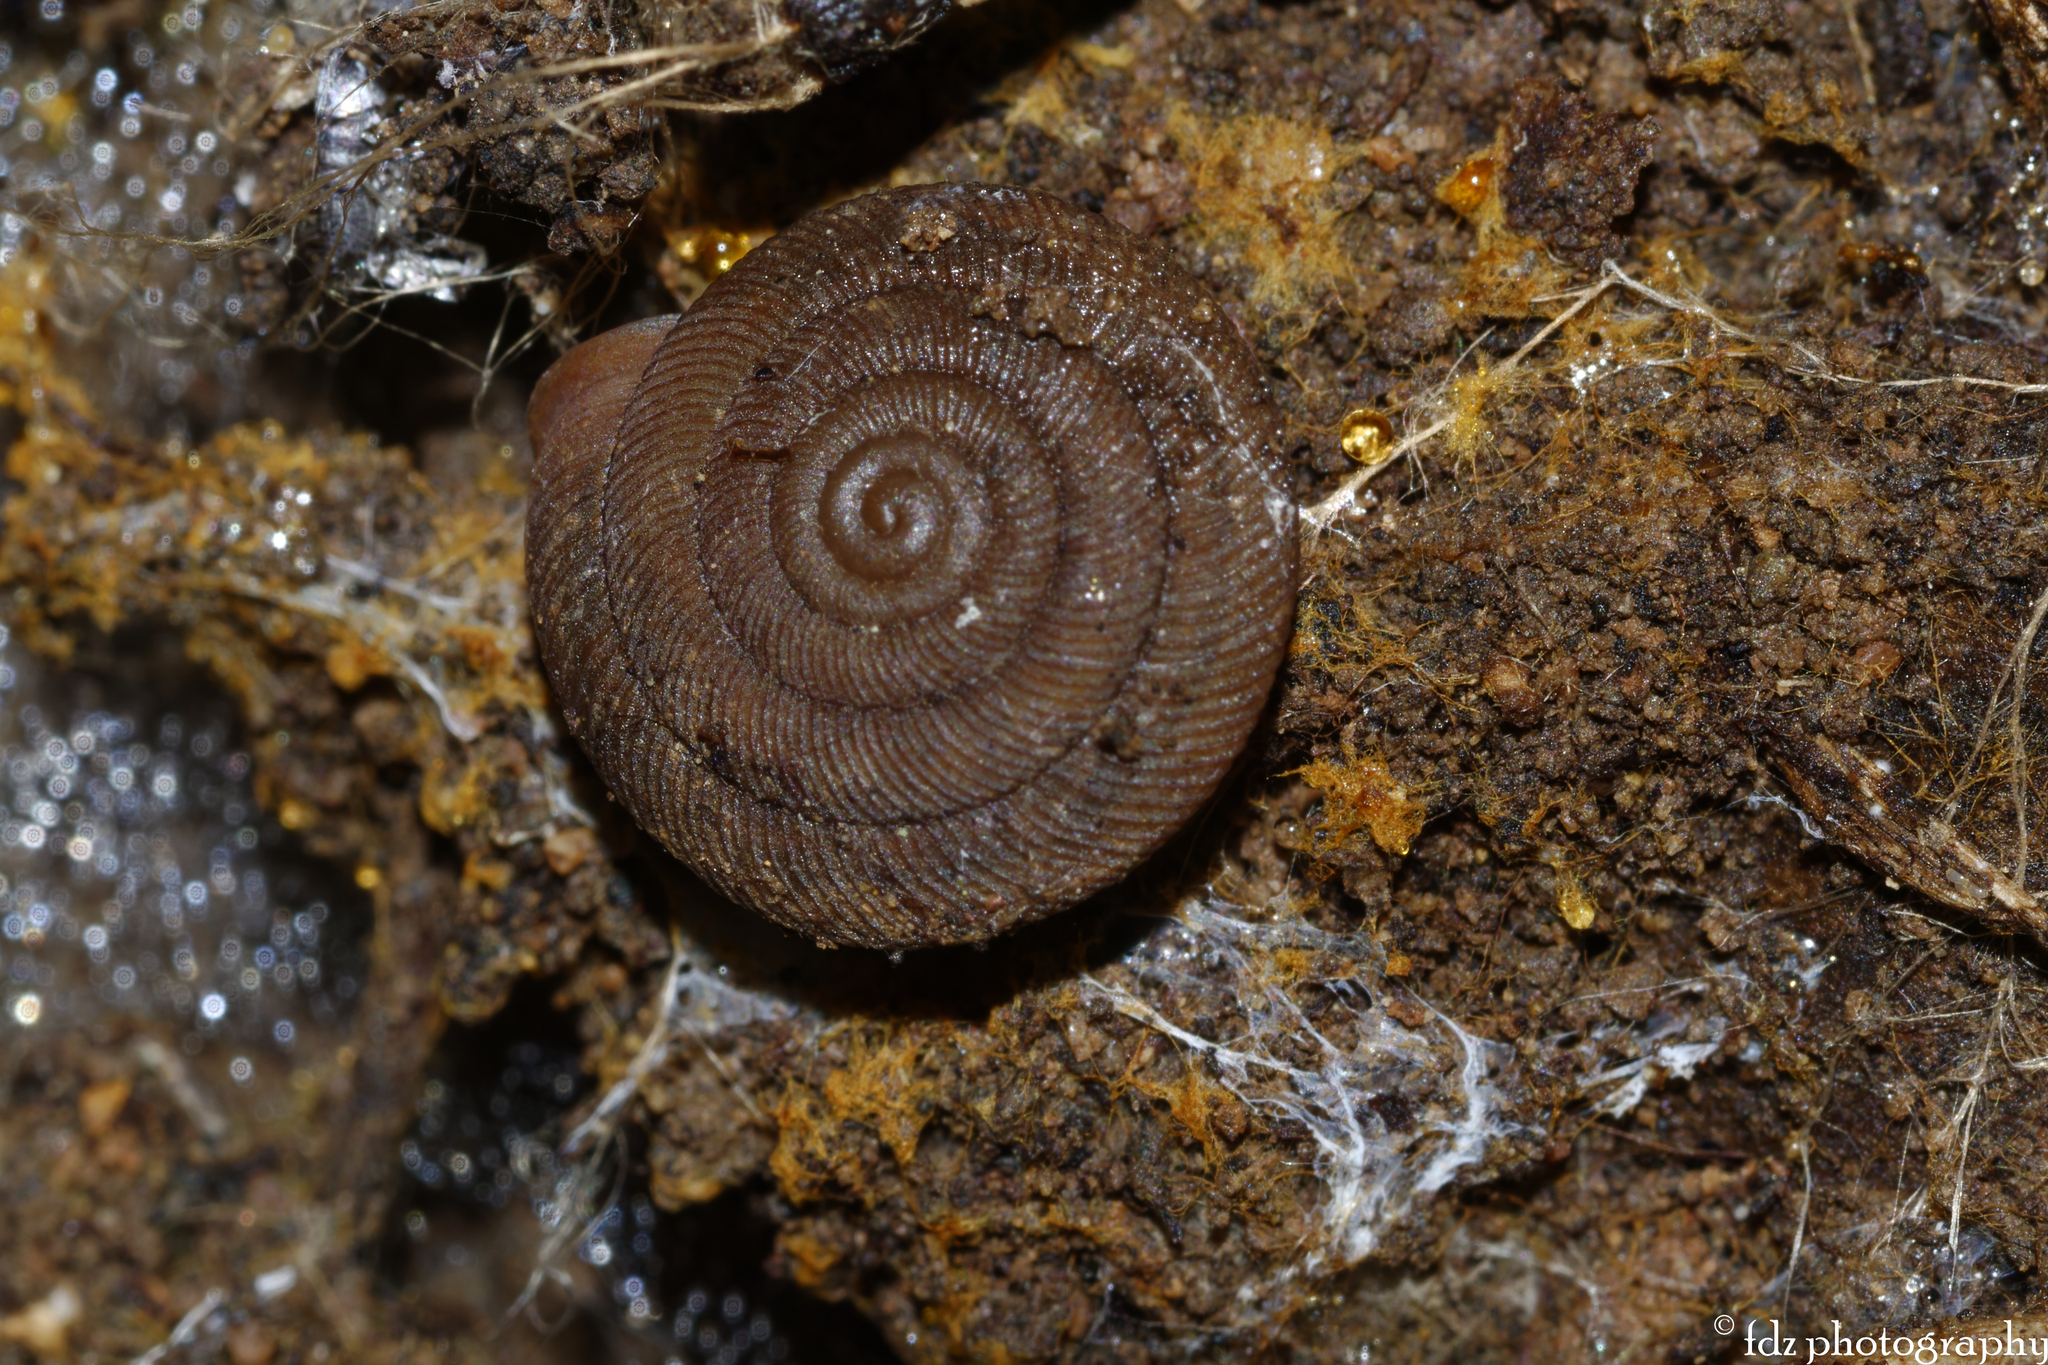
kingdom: Animalia
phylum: Mollusca
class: Gastropoda
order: Stylommatophora
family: Trissexodontidae
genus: Oestophora
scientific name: Oestophora barbella
